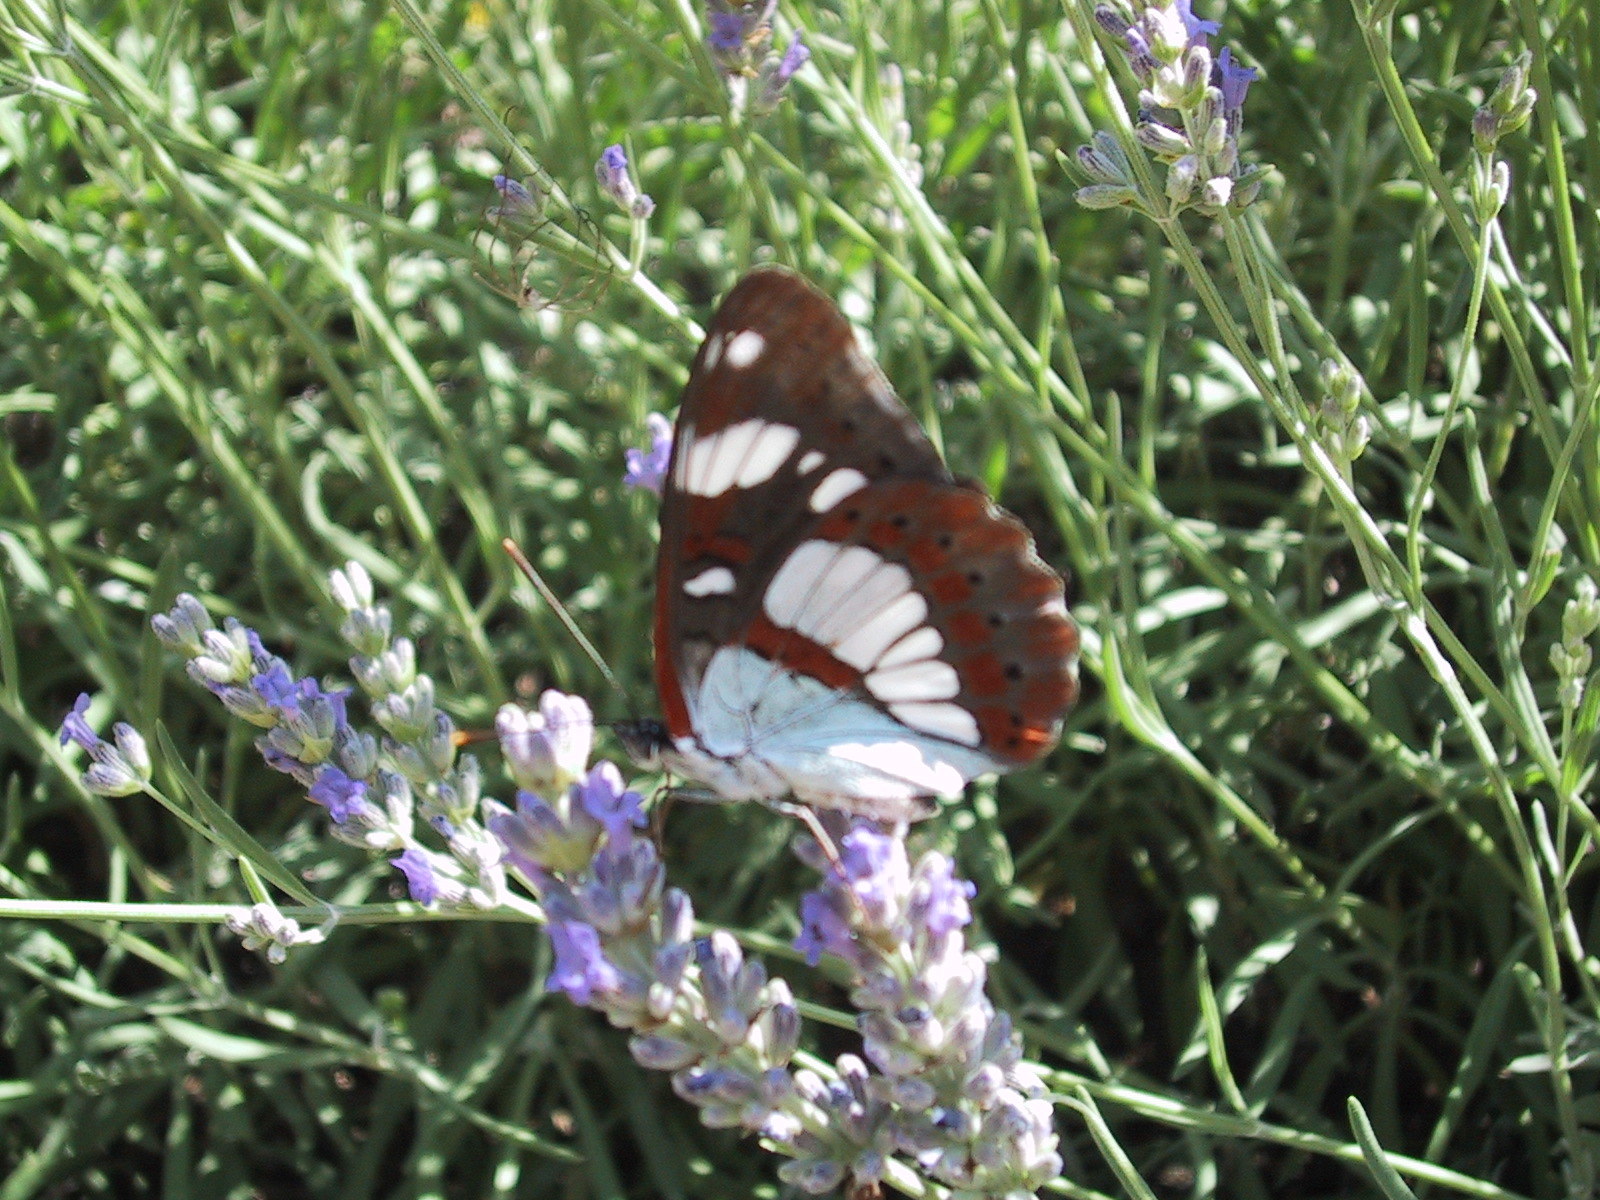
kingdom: Animalia
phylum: Arthropoda
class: Insecta
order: Lepidoptera
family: Nymphalidae
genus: Limenitis
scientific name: Limenitis reducta
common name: Southern white admiral
